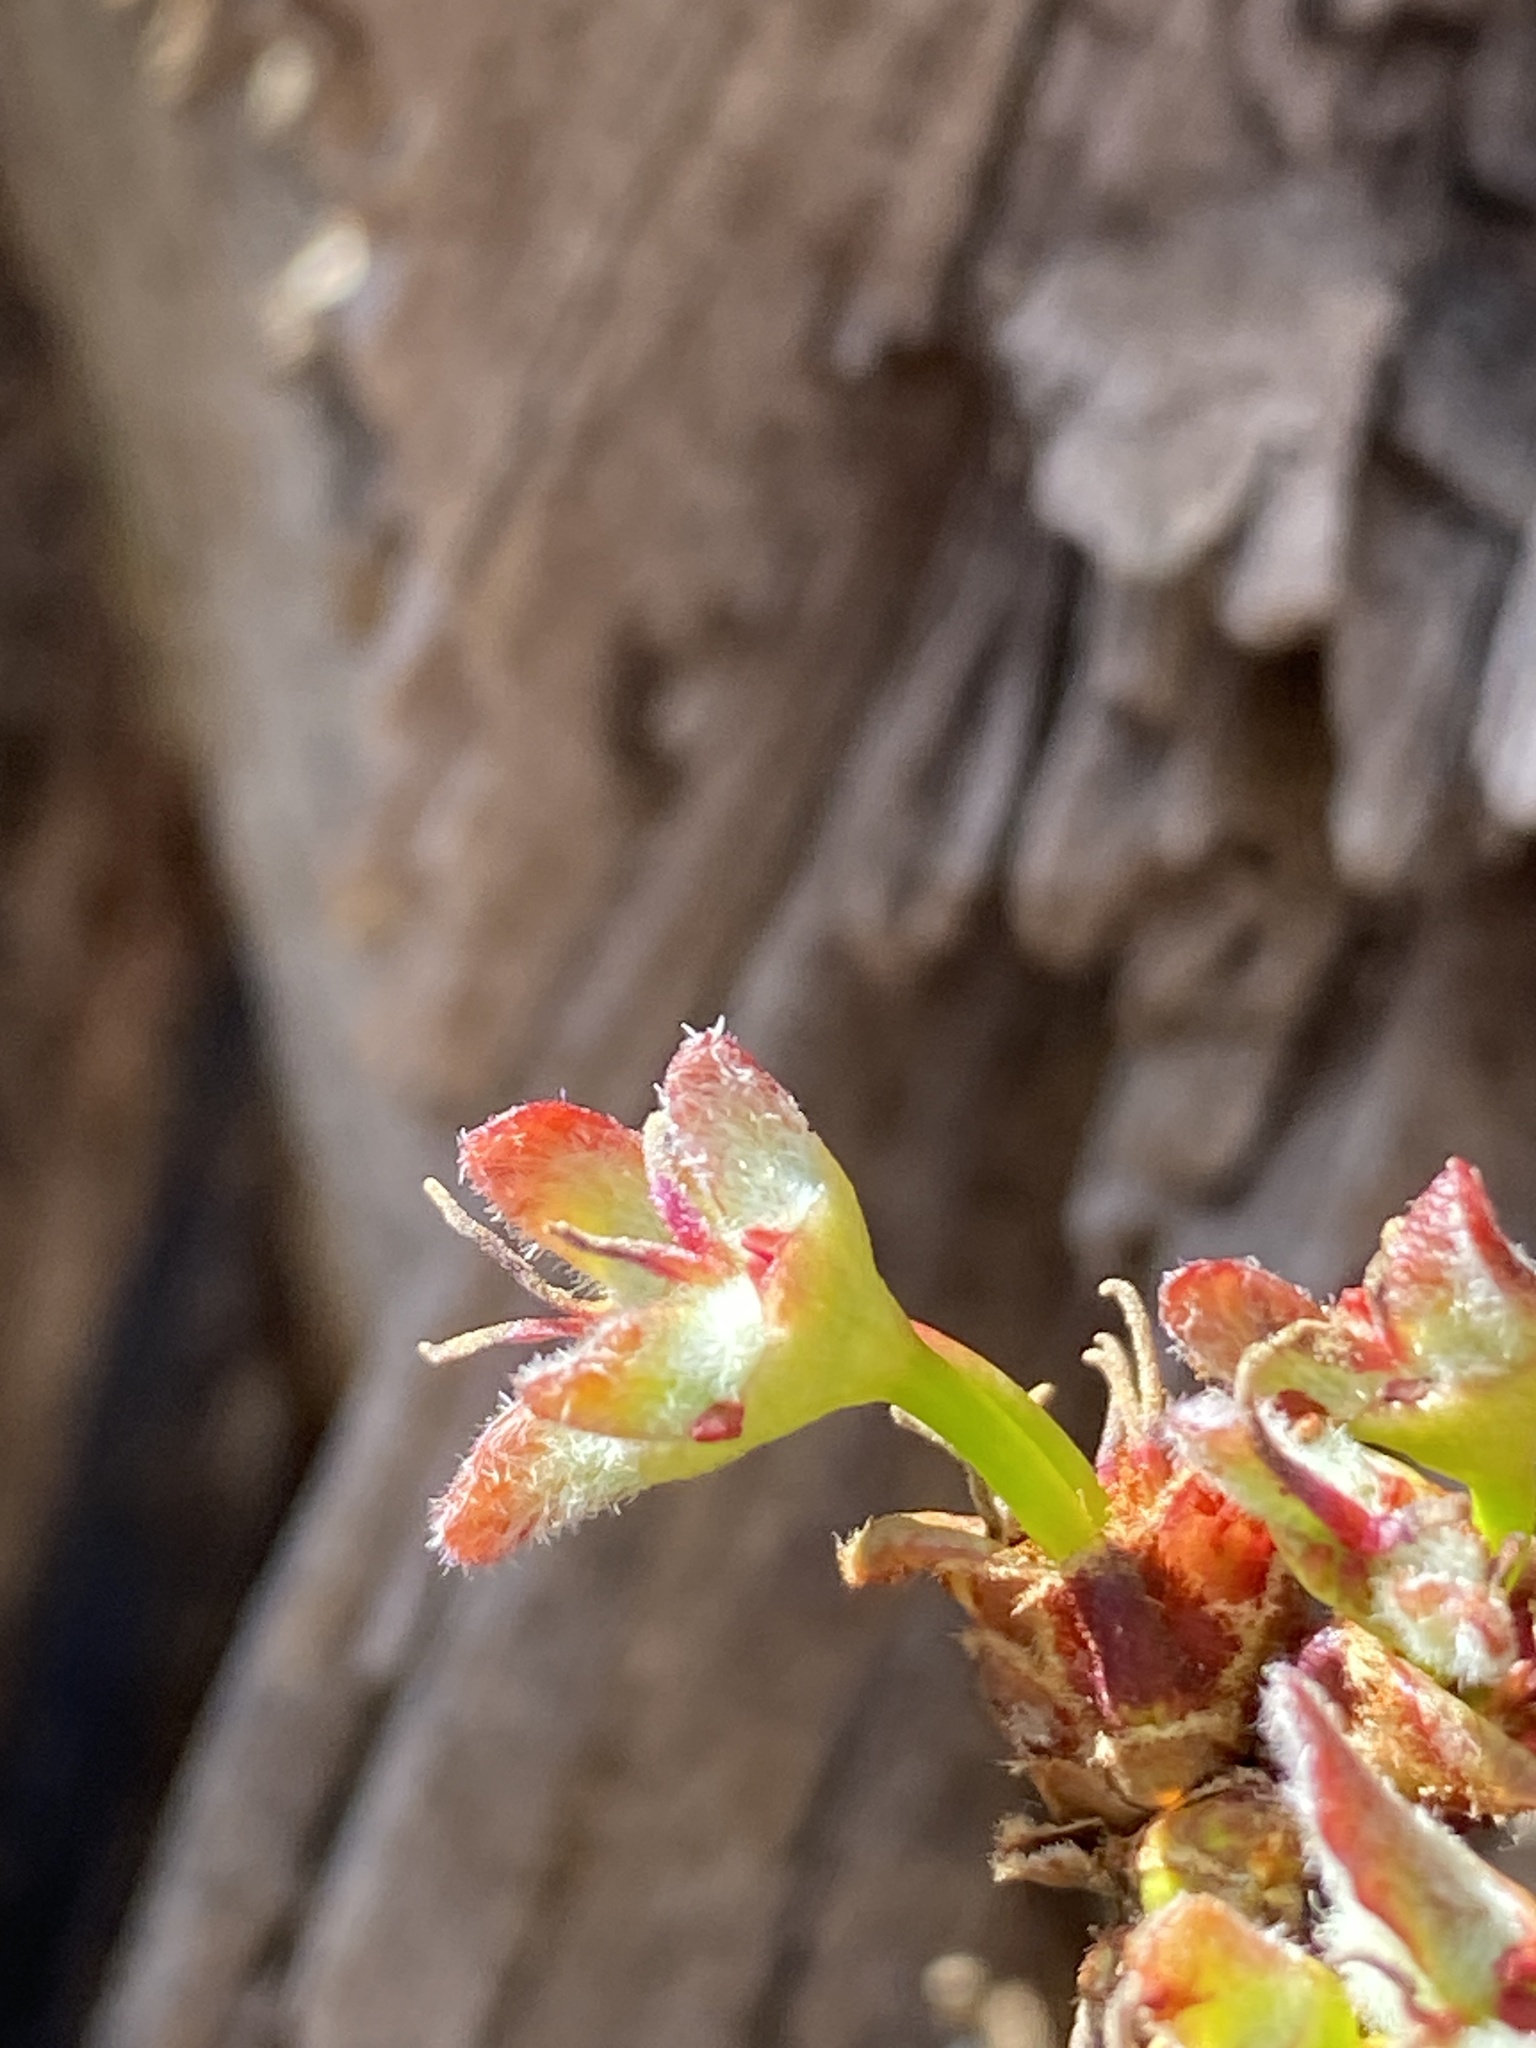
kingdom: Plantae
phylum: Tracheophyta
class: Magnoliopsida
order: Sapindales
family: Sapindaceae
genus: Acer
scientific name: Acer saccharinum
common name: Silver maple
